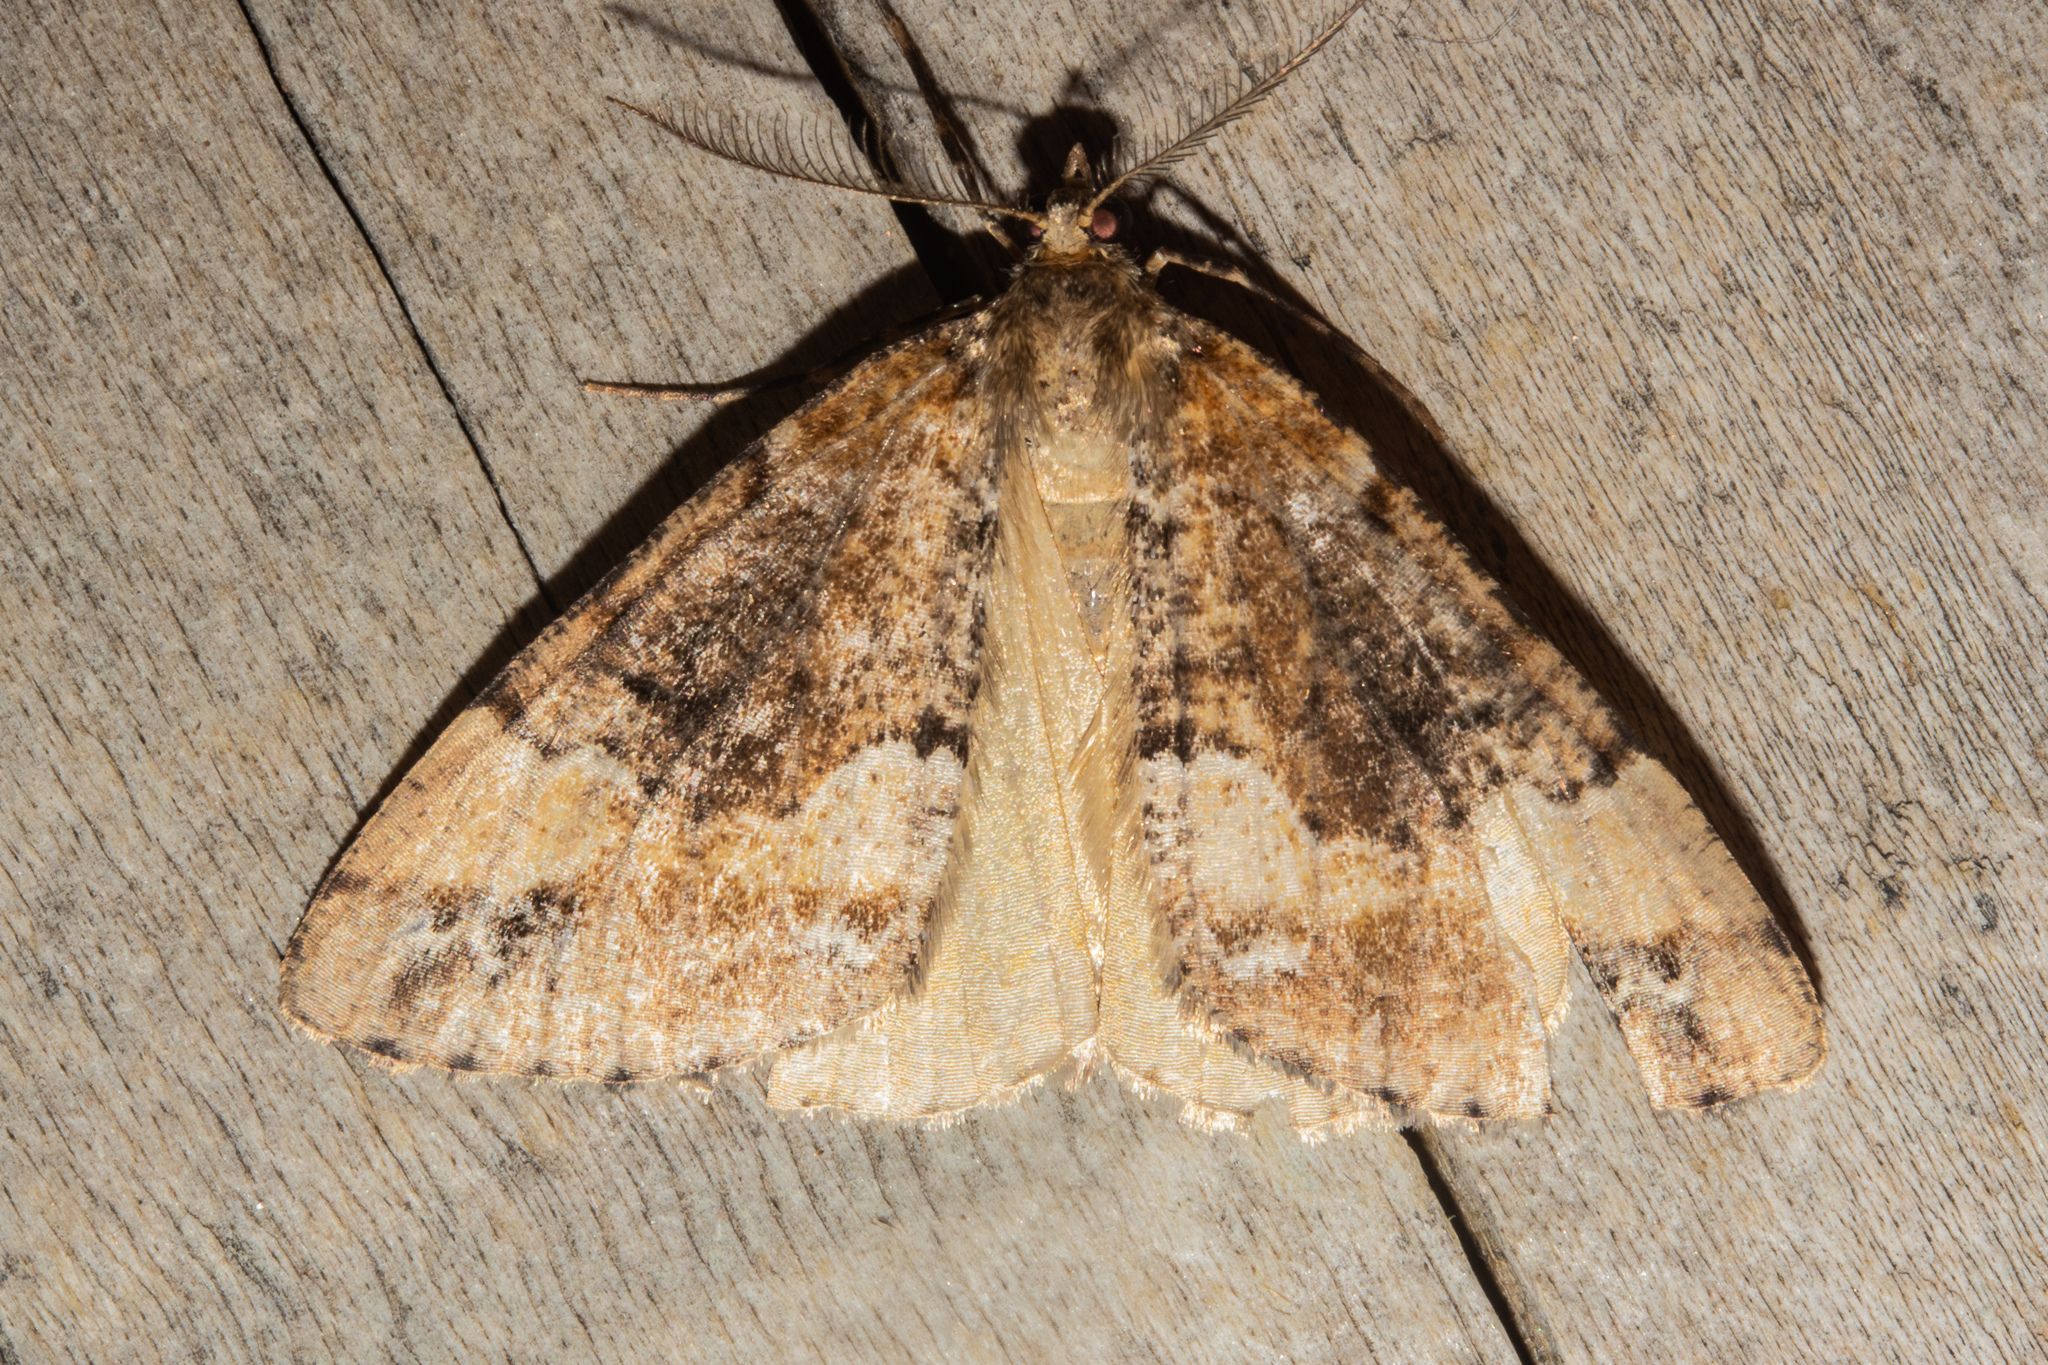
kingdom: Animalia
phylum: Arthropoda
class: Insecta
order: Lepidoptera
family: Geometridae
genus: Pseudocoremia
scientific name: Pseudocoremia colpogramma
